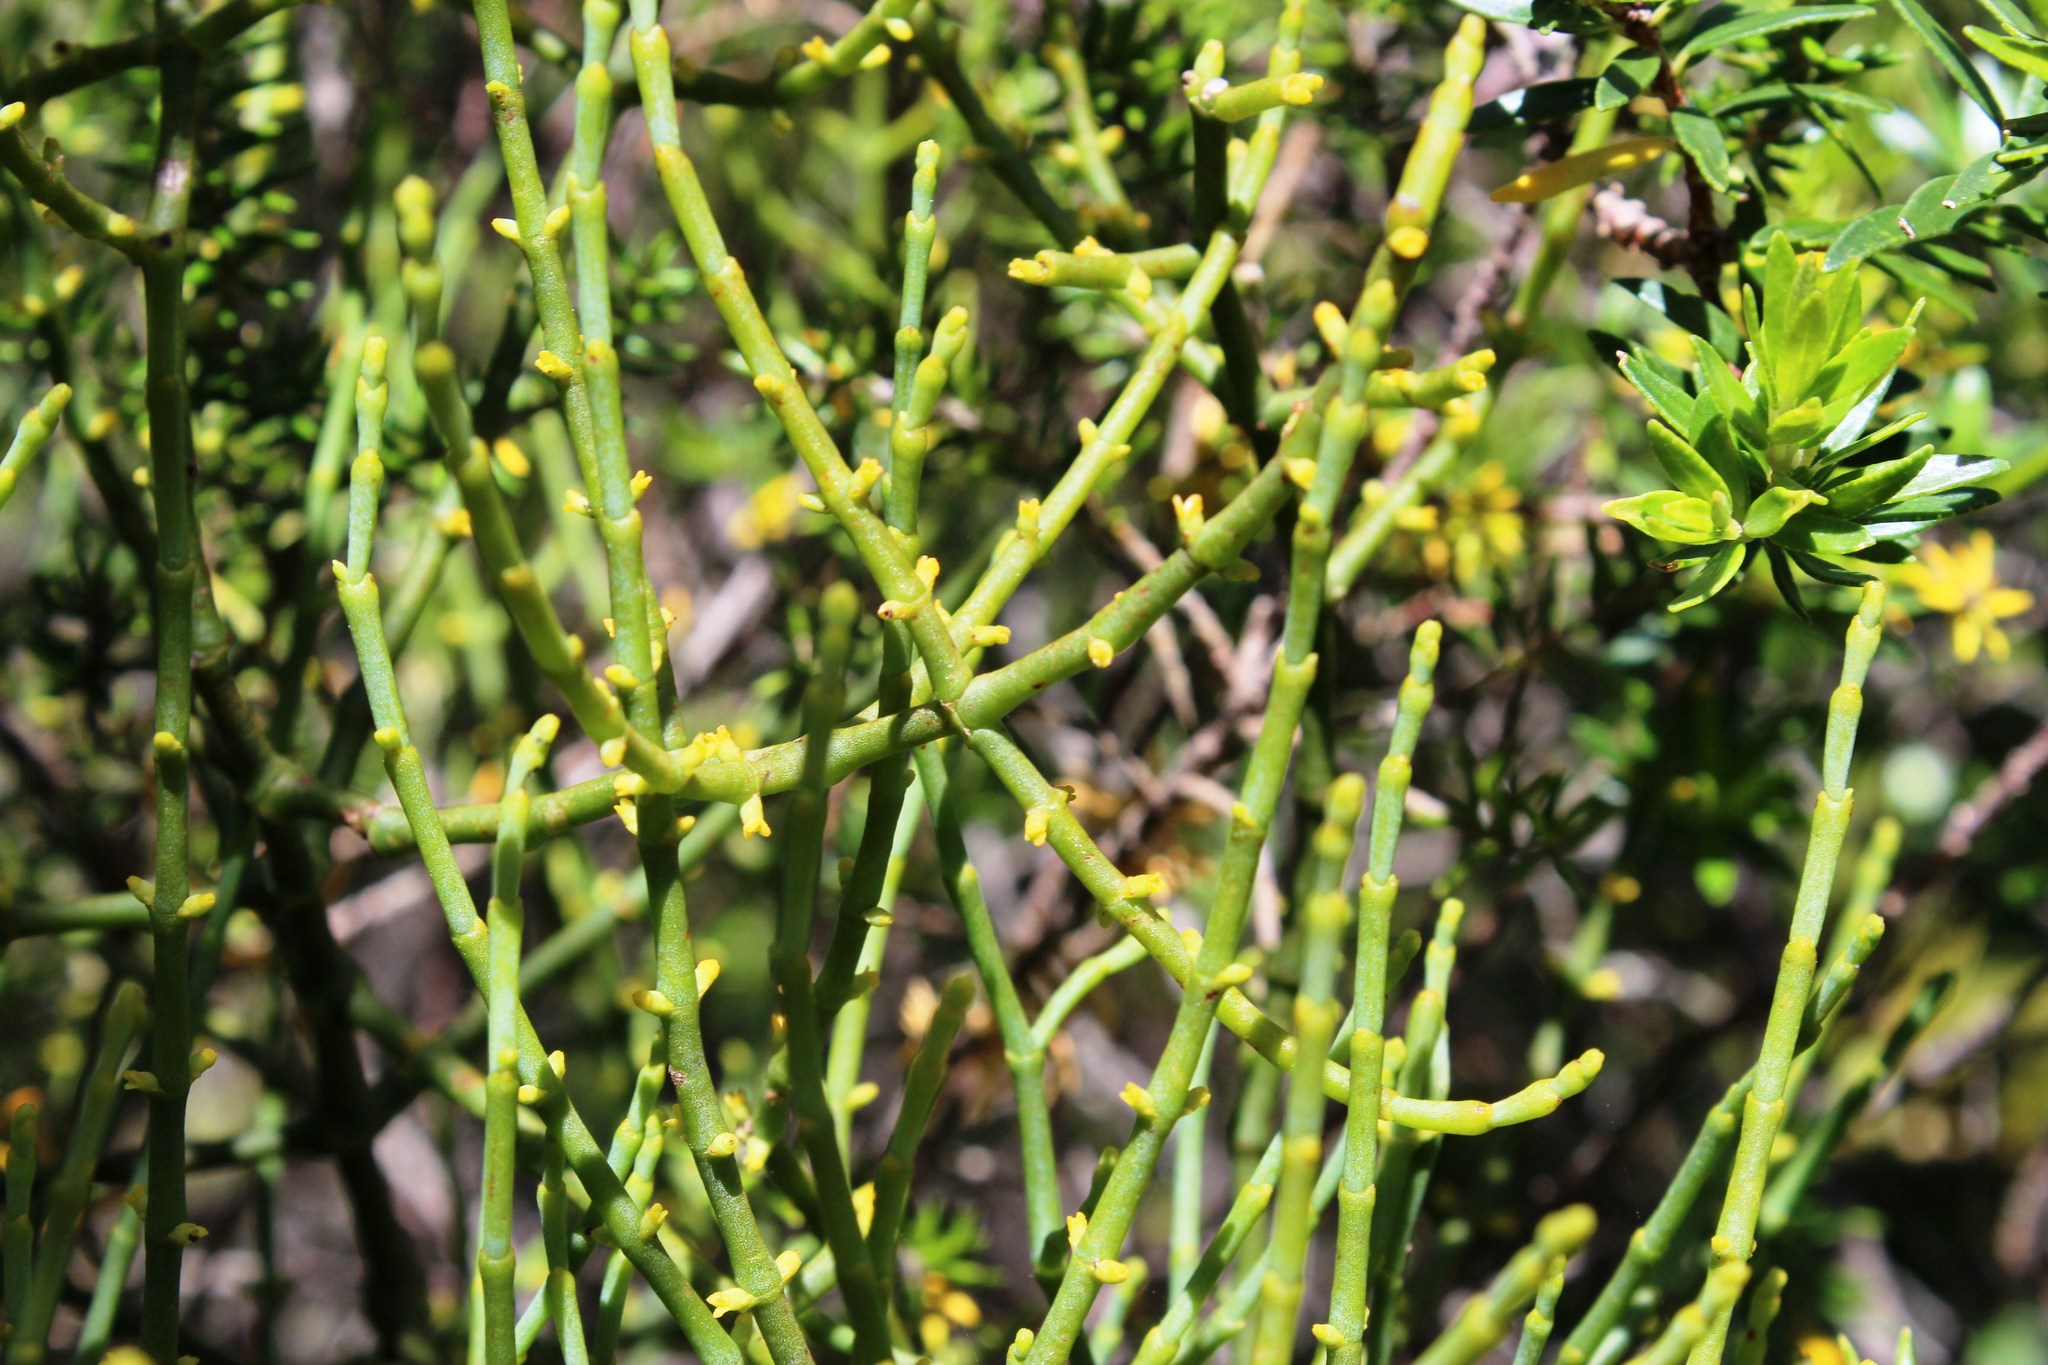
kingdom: Plantae
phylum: Tracheophyta
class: Magnoliopsida
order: Santalales
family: Viscaceae
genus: Viscum
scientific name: Viscum hoolei
